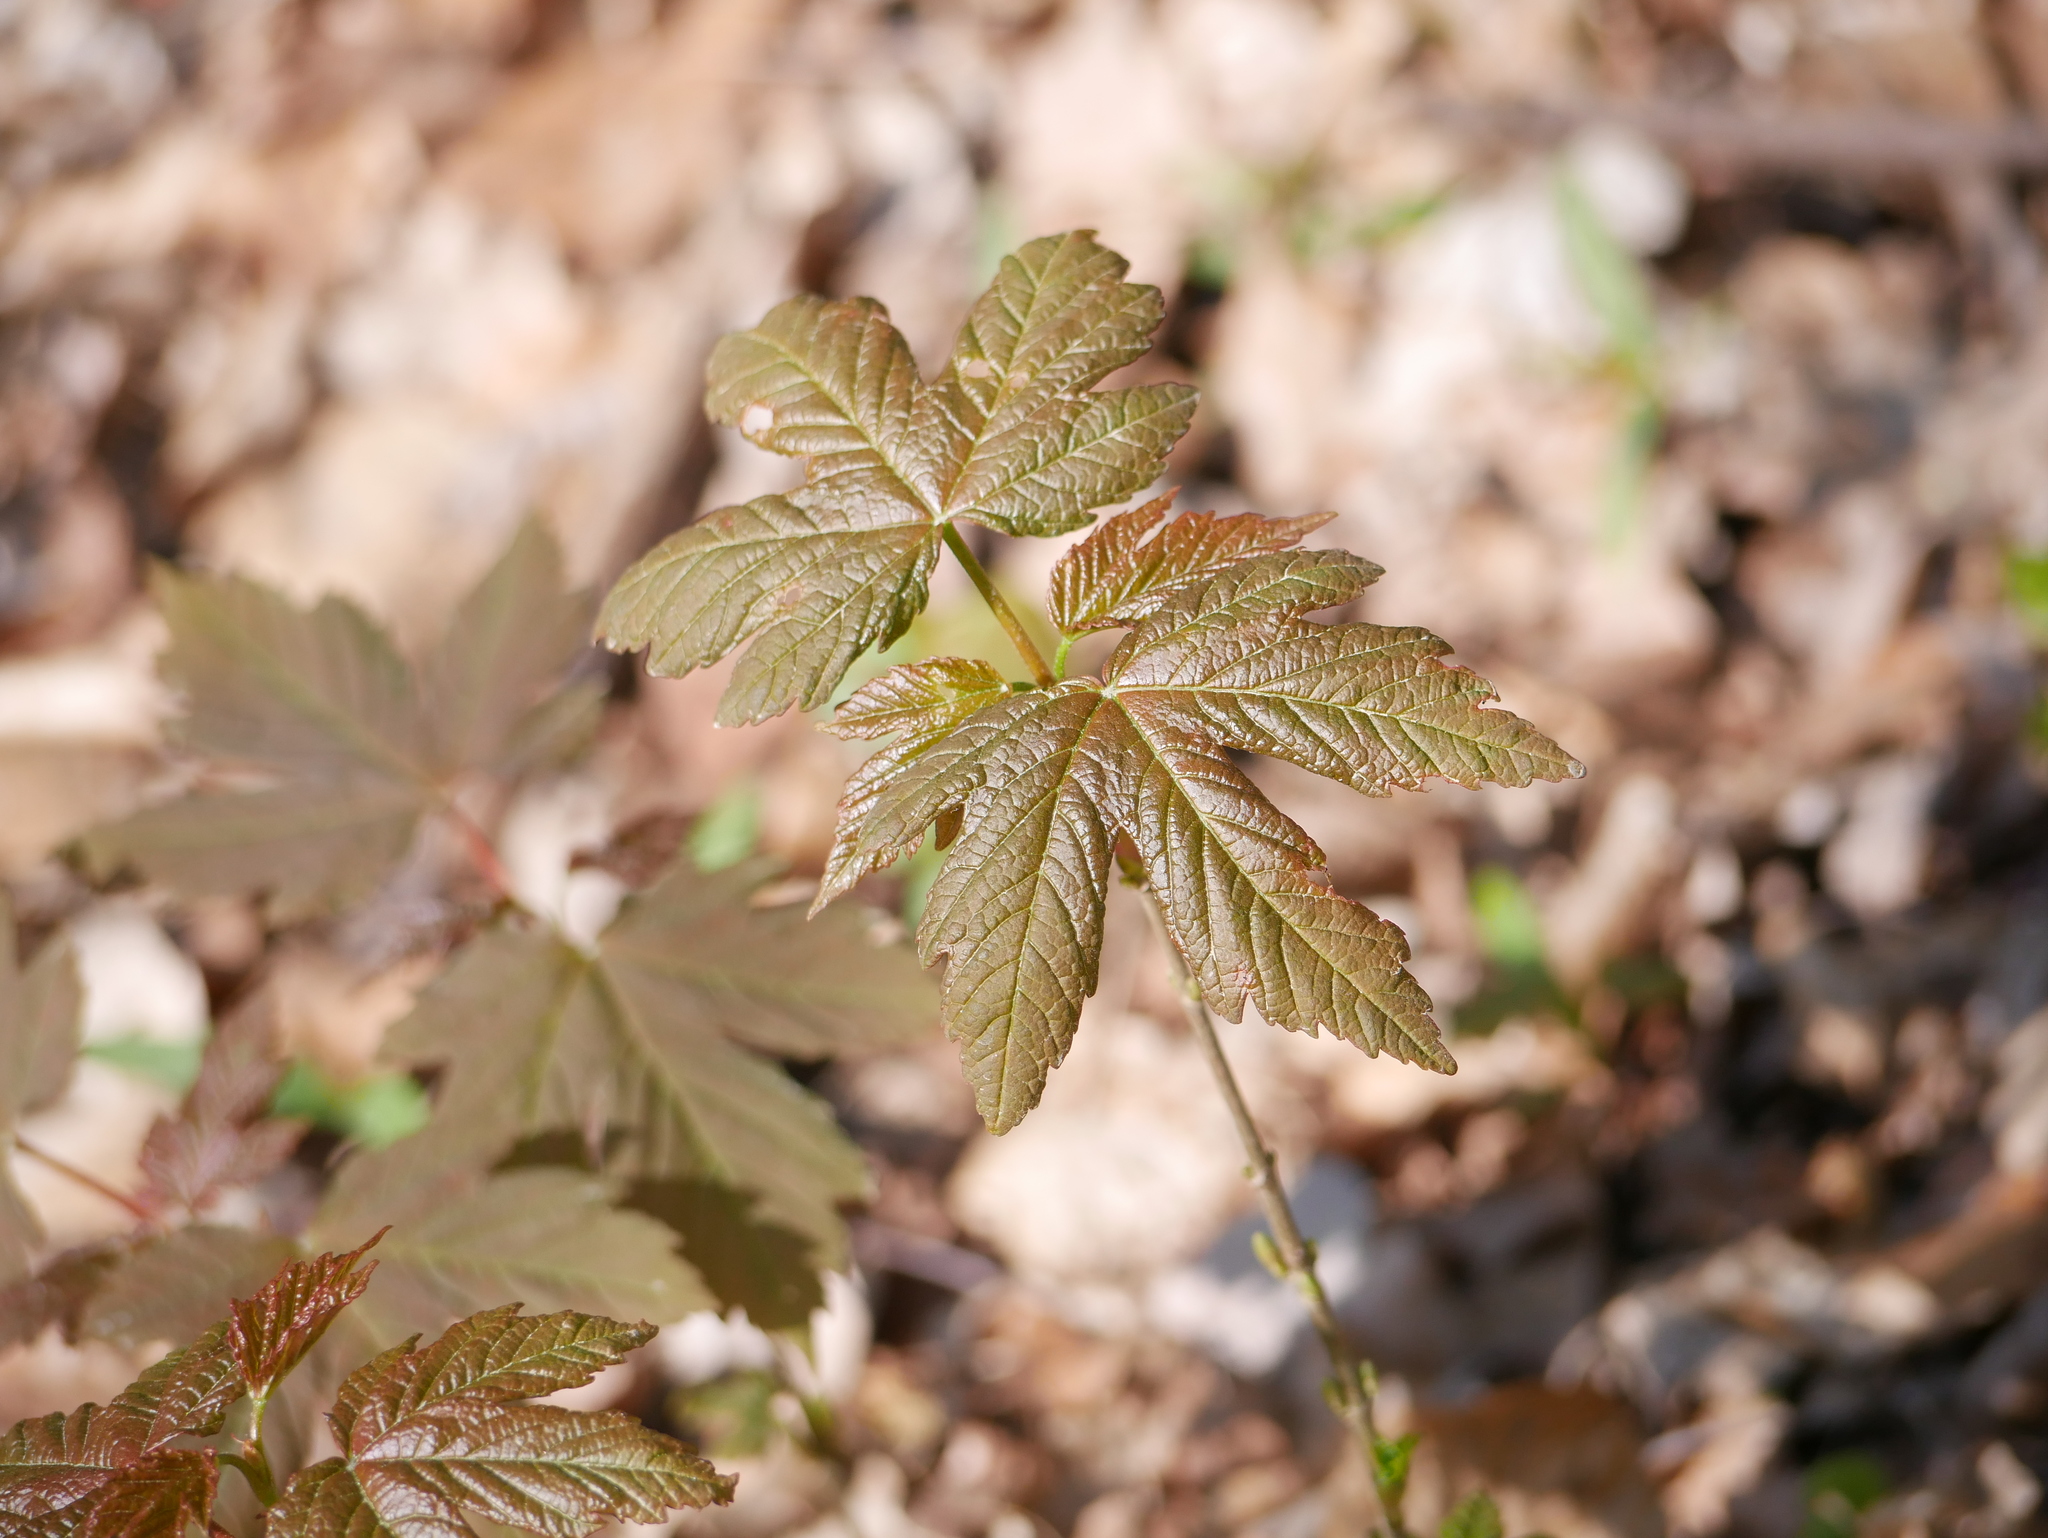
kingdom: Plantae
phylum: Tracheophyta
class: Magnoliopsida
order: Sapindales
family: Sapindaceae
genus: Acer
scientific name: Acer pseudoplatanus
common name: Sycamore
